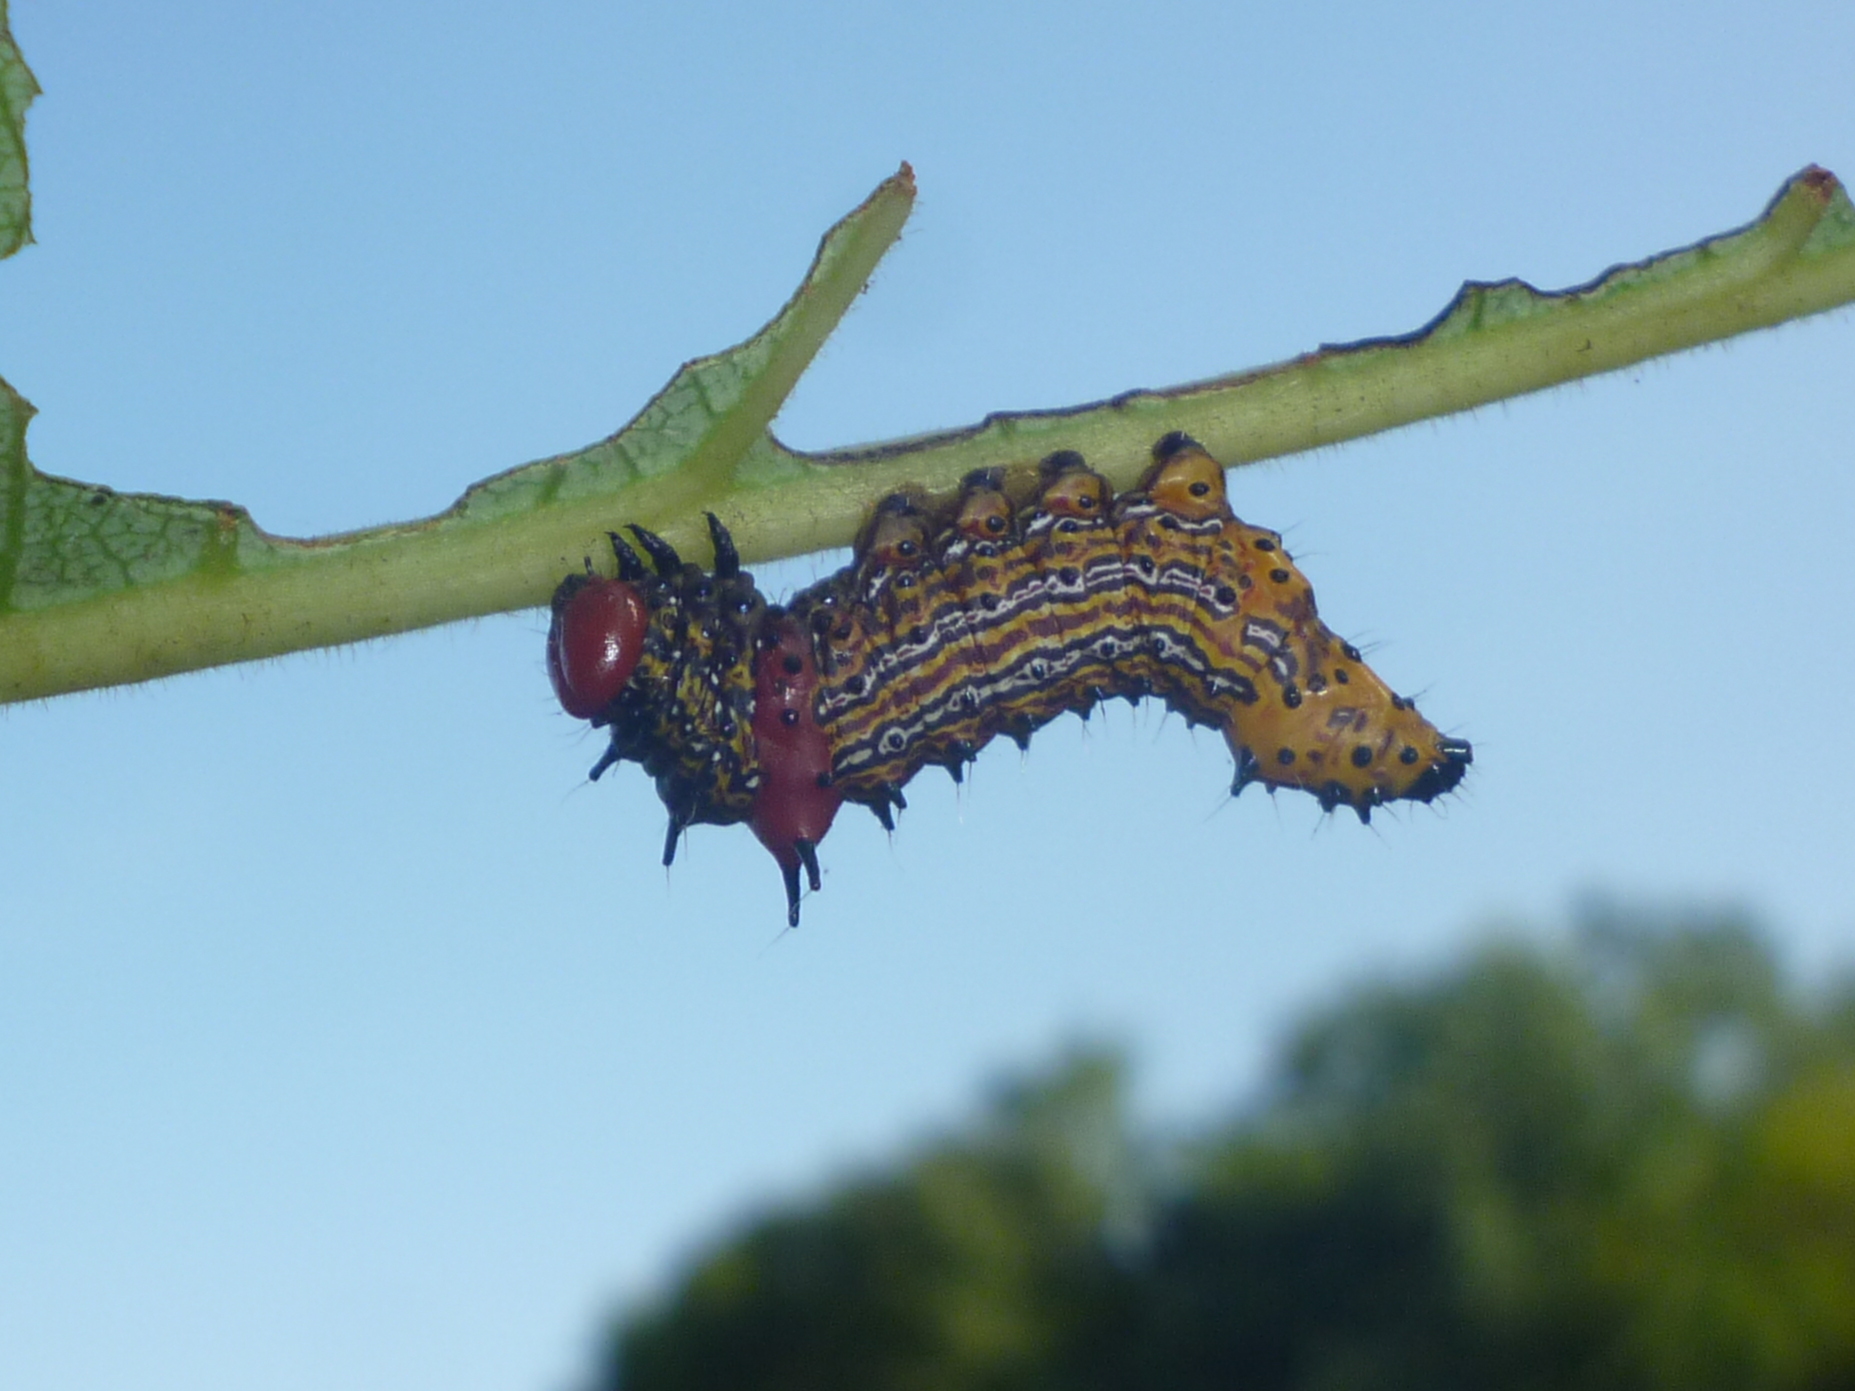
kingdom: Animalia
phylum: Arthropoda
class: Insecta
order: Lepidoptera
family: Notodontidae
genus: Schizura
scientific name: Schizura
